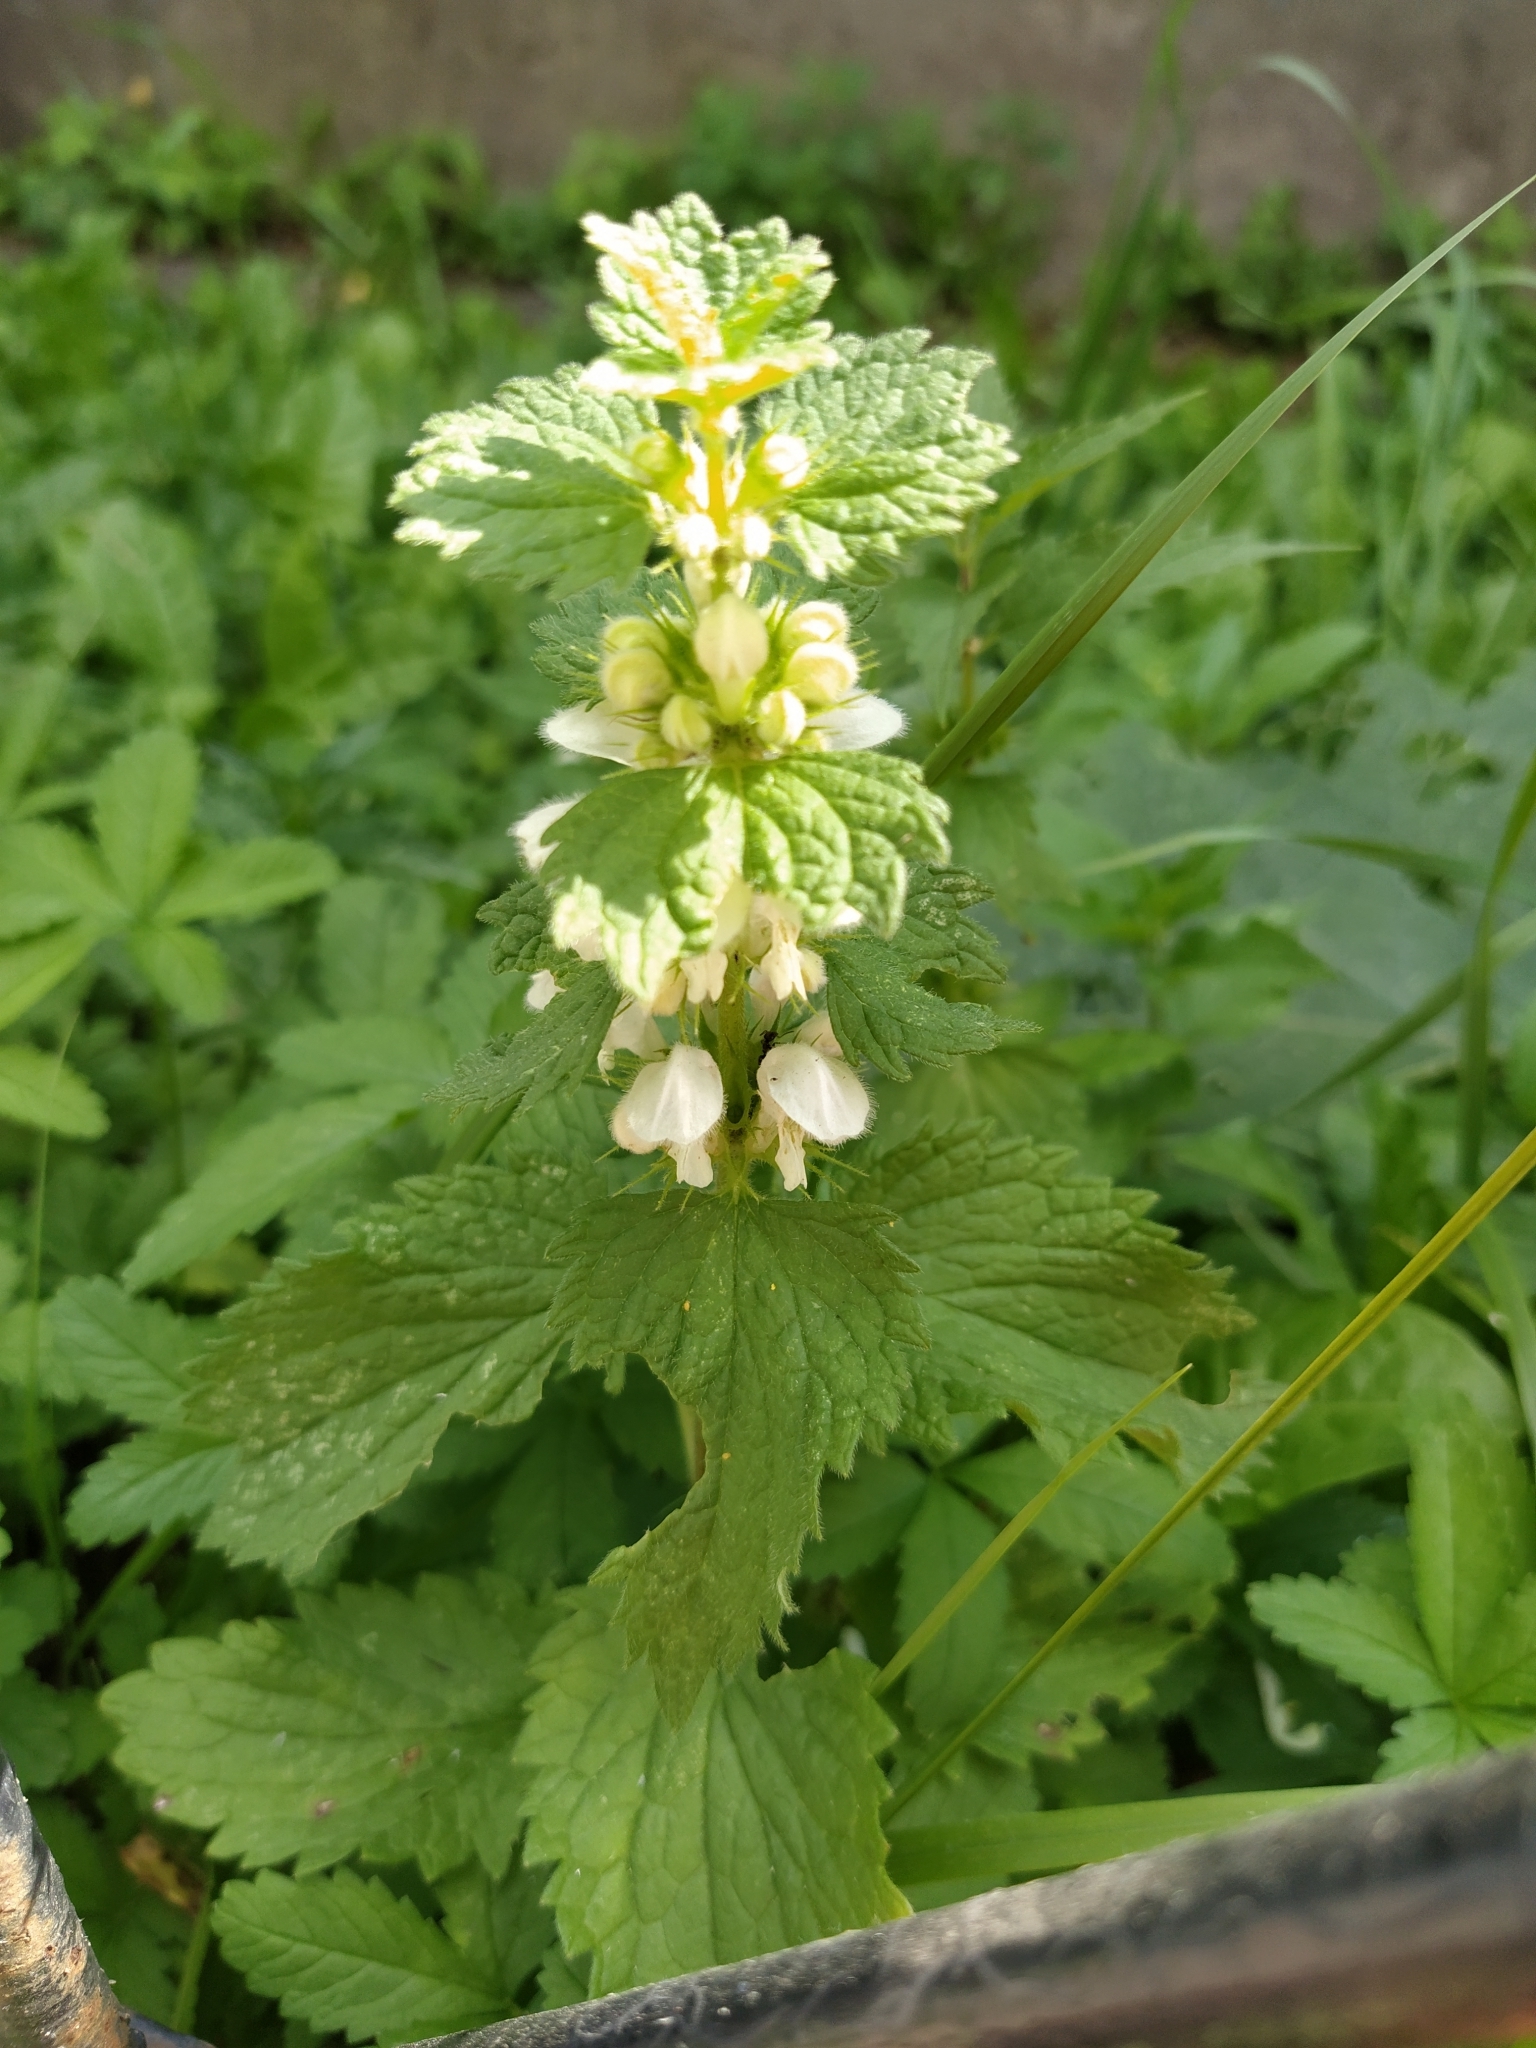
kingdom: Plantae
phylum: Tracheophyta
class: Magnoliopsida
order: Lamiales
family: Lamiaceae
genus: Lamium
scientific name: Lamium album
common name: White dead-nettle
